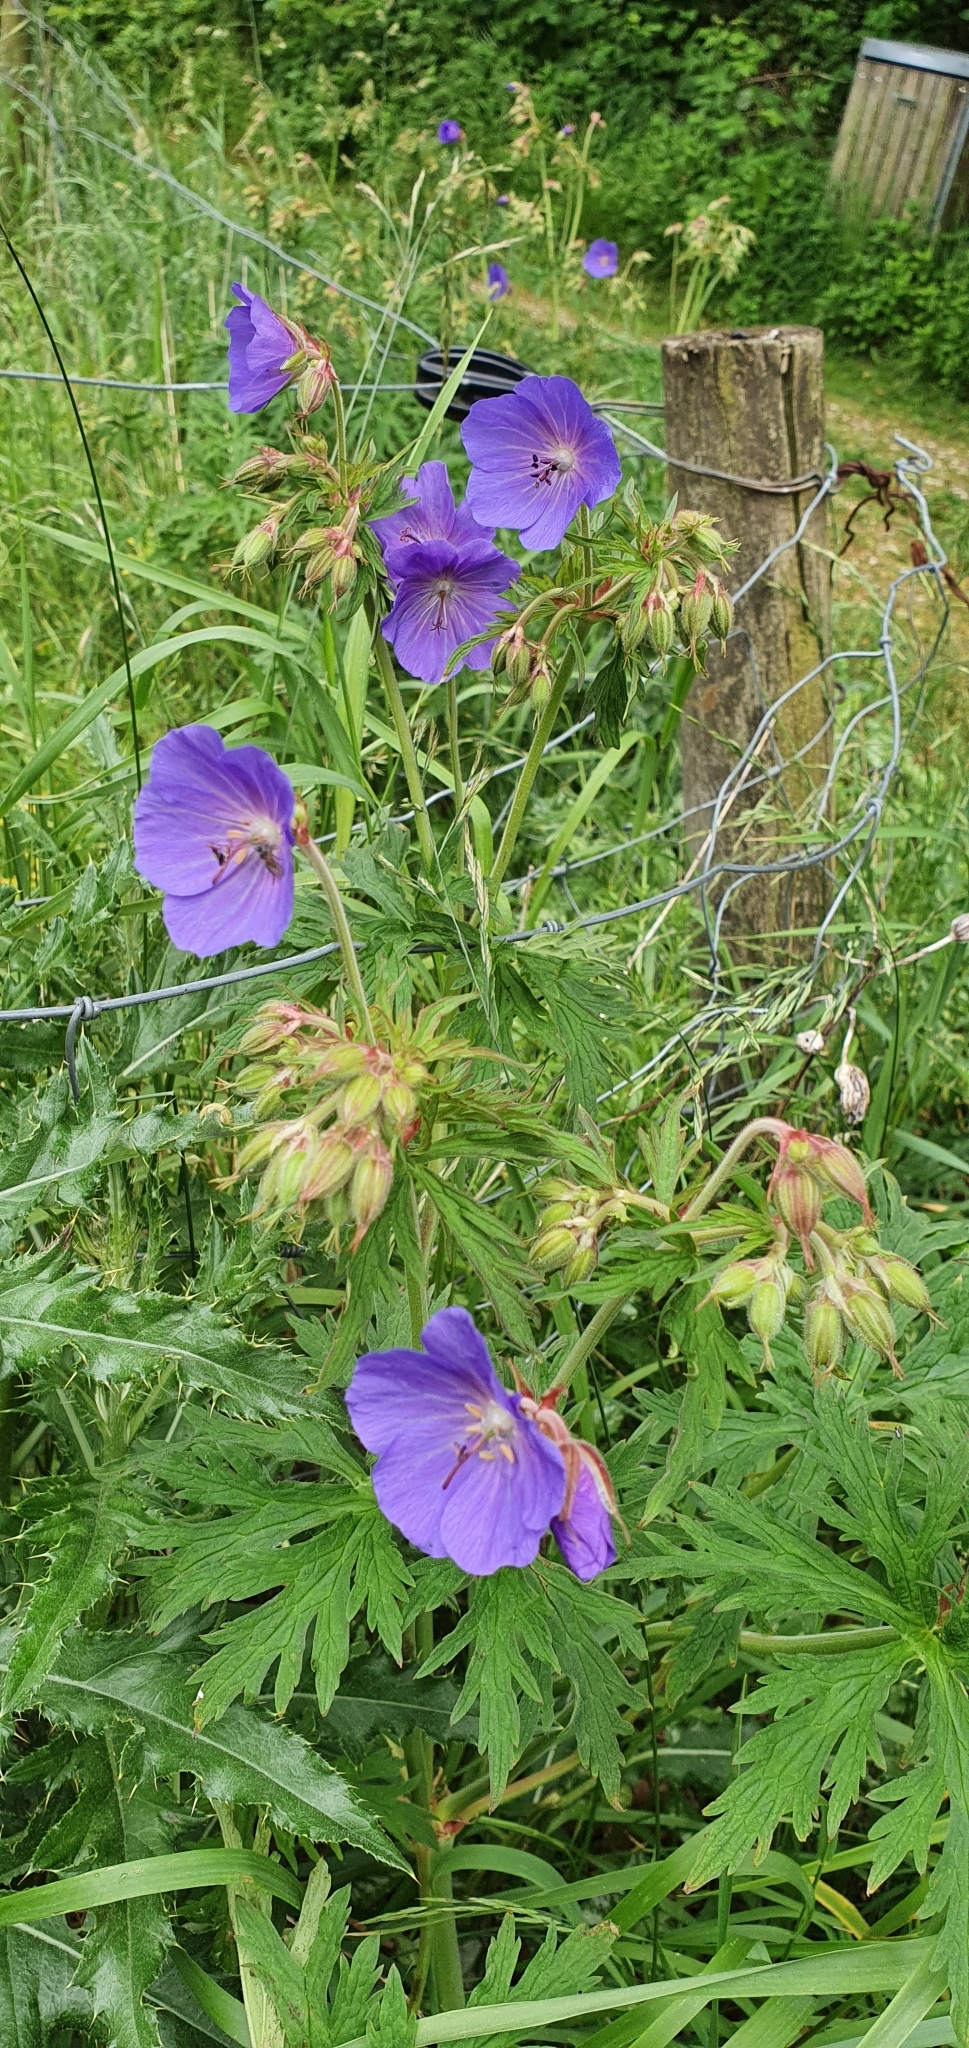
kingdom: Plantae
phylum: Tracheophyta
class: Magnoliopsida
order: Geraniales
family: Geraniaceae
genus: Geranium
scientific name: Geranium pratense
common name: Meadow crane's-bill
